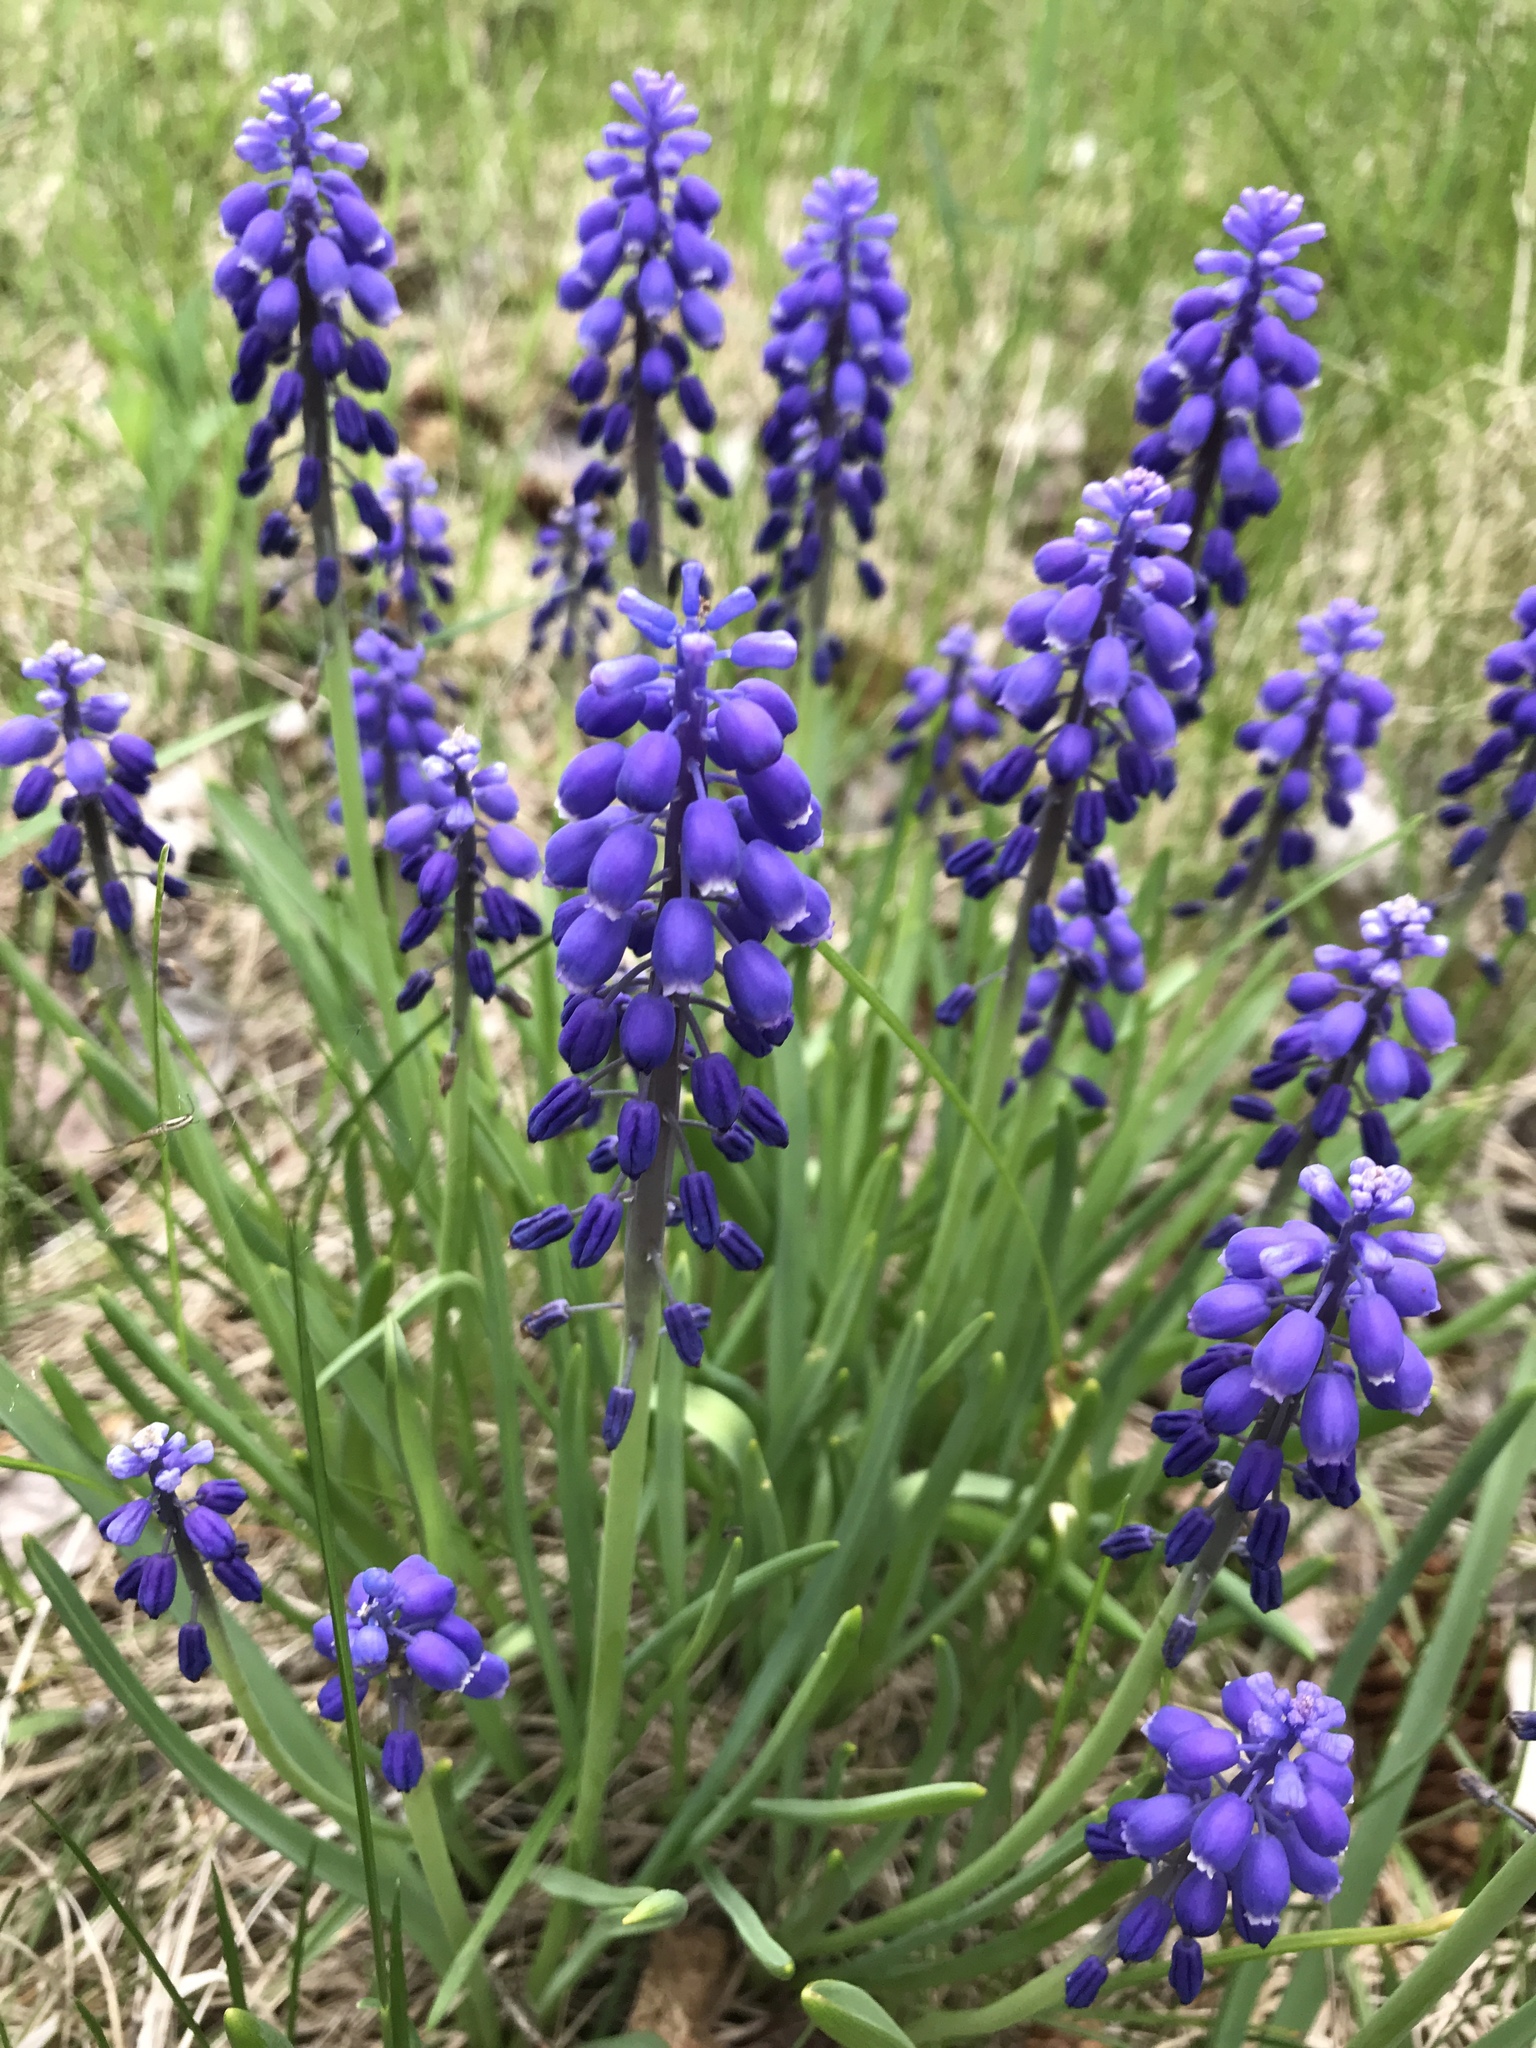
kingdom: Plantae
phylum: Tracheophyta
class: Liliopsida
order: Asparagales
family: Asparagaceae
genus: Muscari
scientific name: Muscari armeniacum
